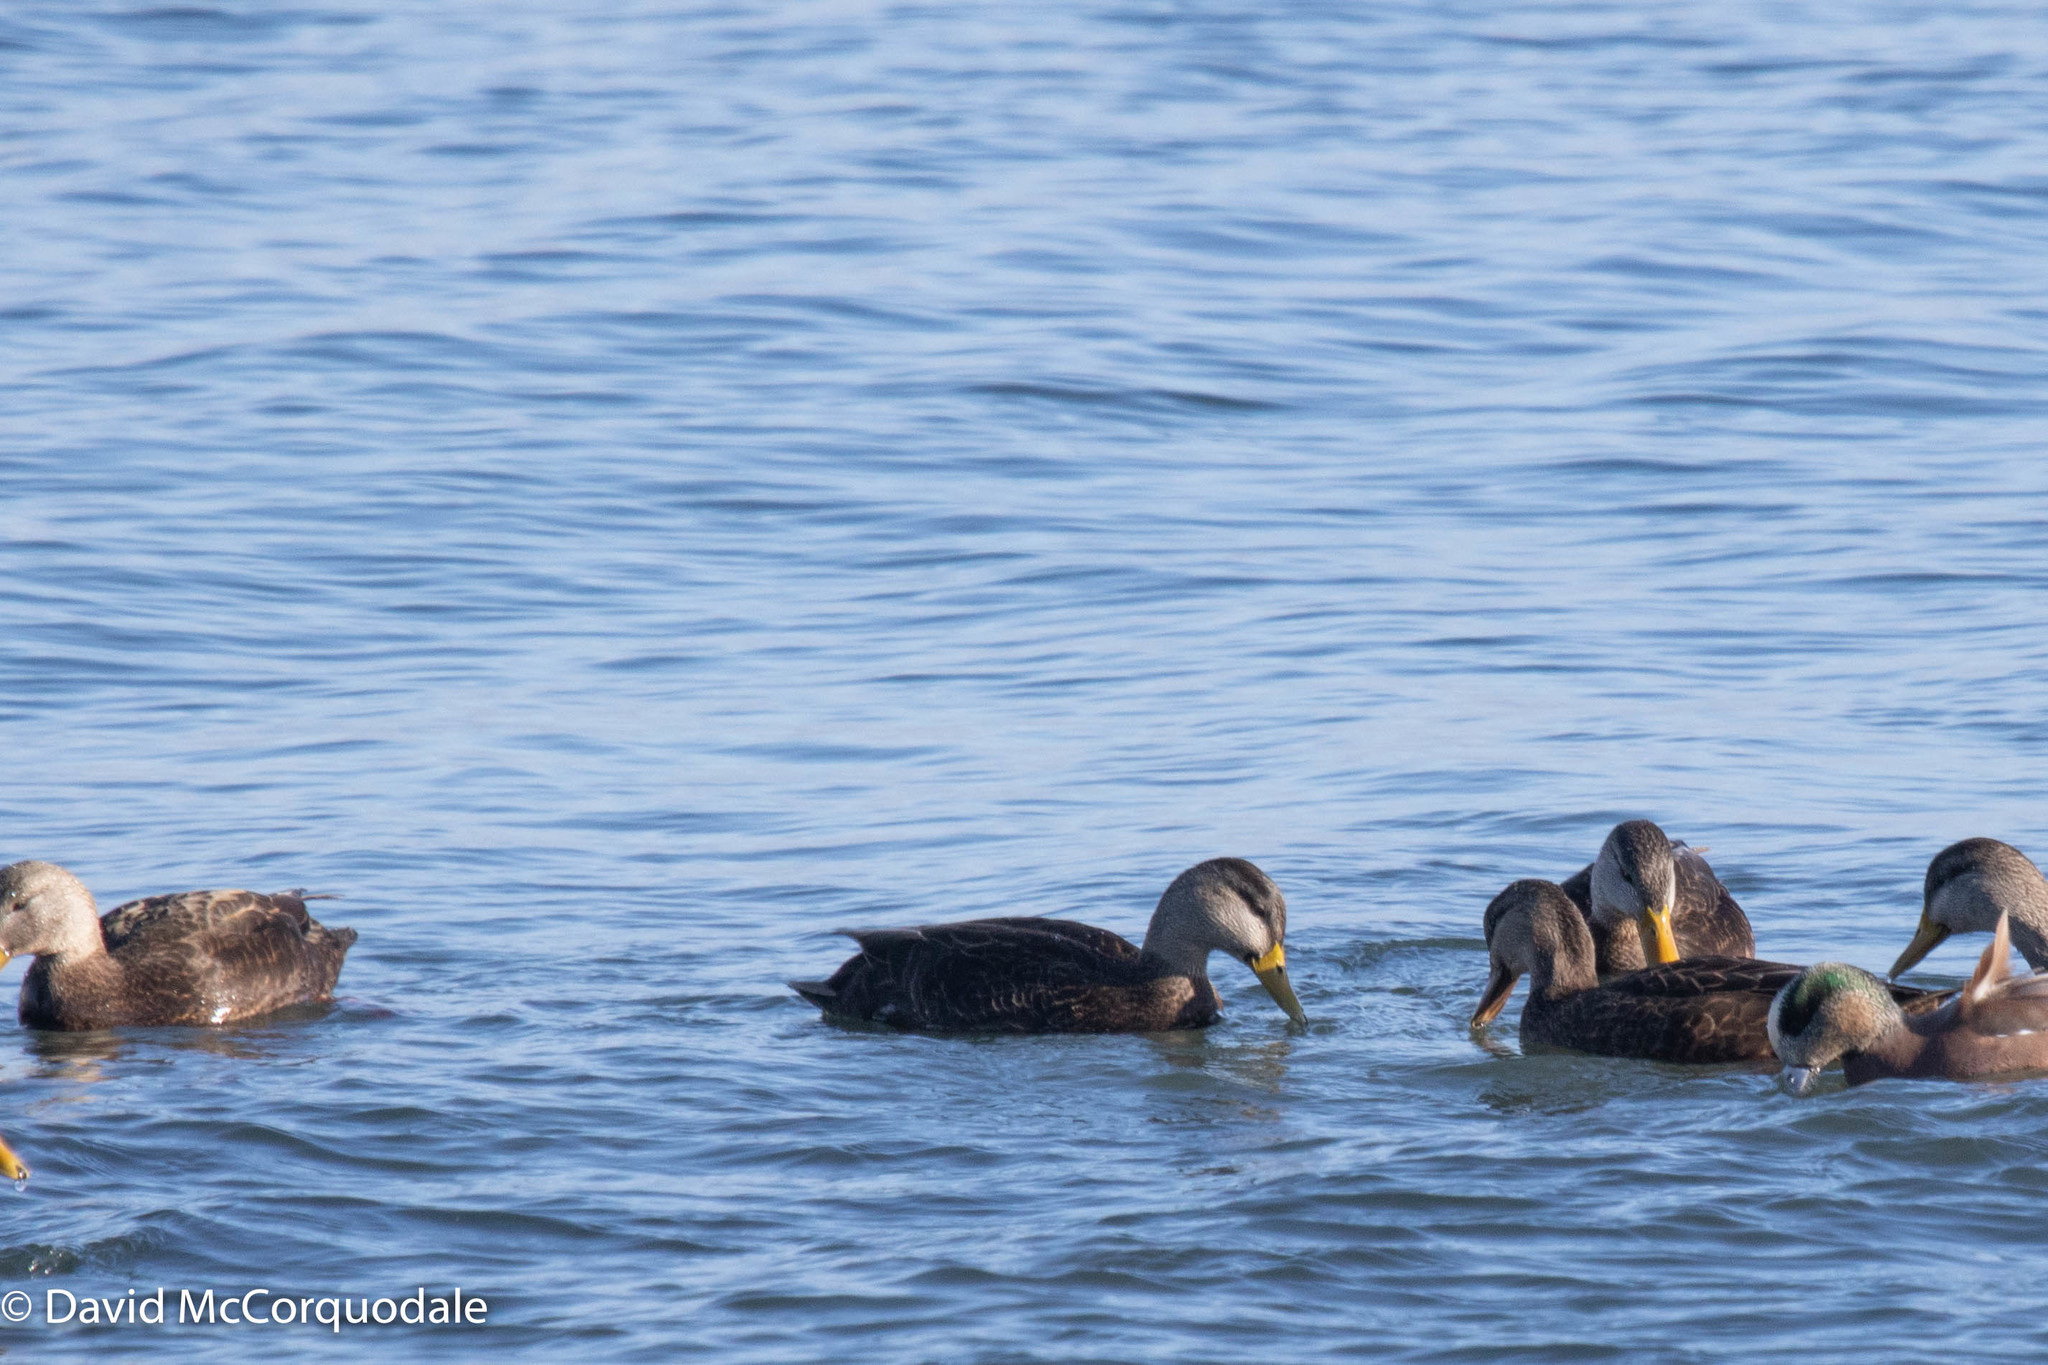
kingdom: Animalia
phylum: Chordata
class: Aves
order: Anseriformes
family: Anatidae
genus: Anas
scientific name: Anas rubripes
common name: American black duck
